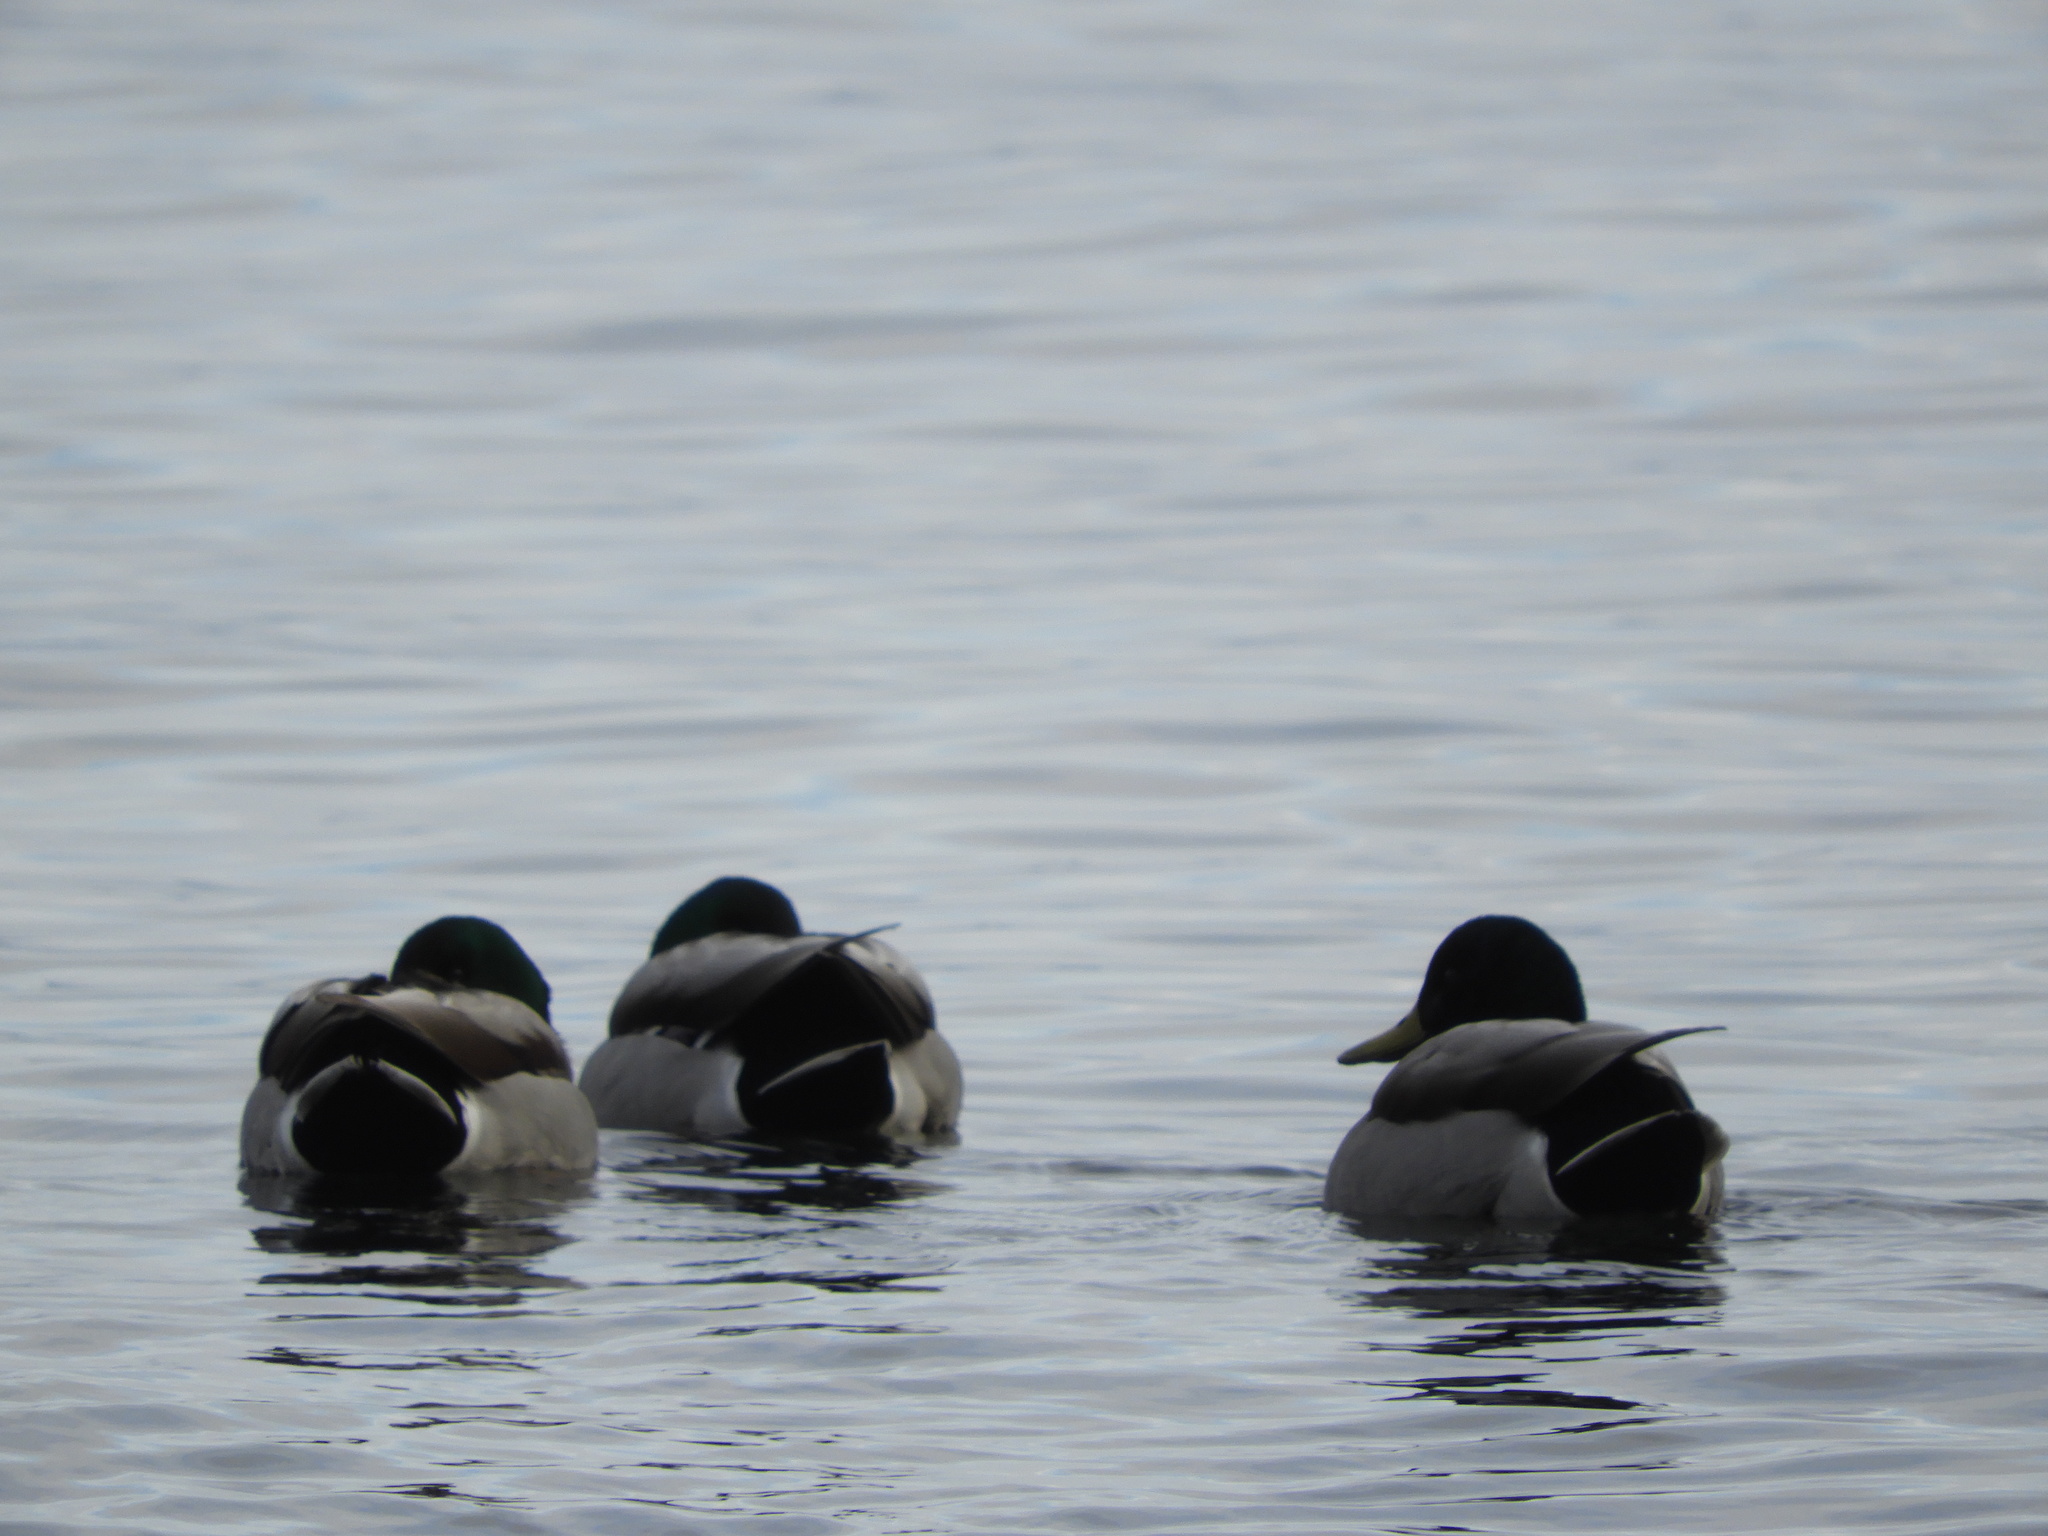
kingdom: Animalia
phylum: Chordata
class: Aves
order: Anseriformes
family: Anatidae
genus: Anas
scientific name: Anas platyrhynchos
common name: Mallard
